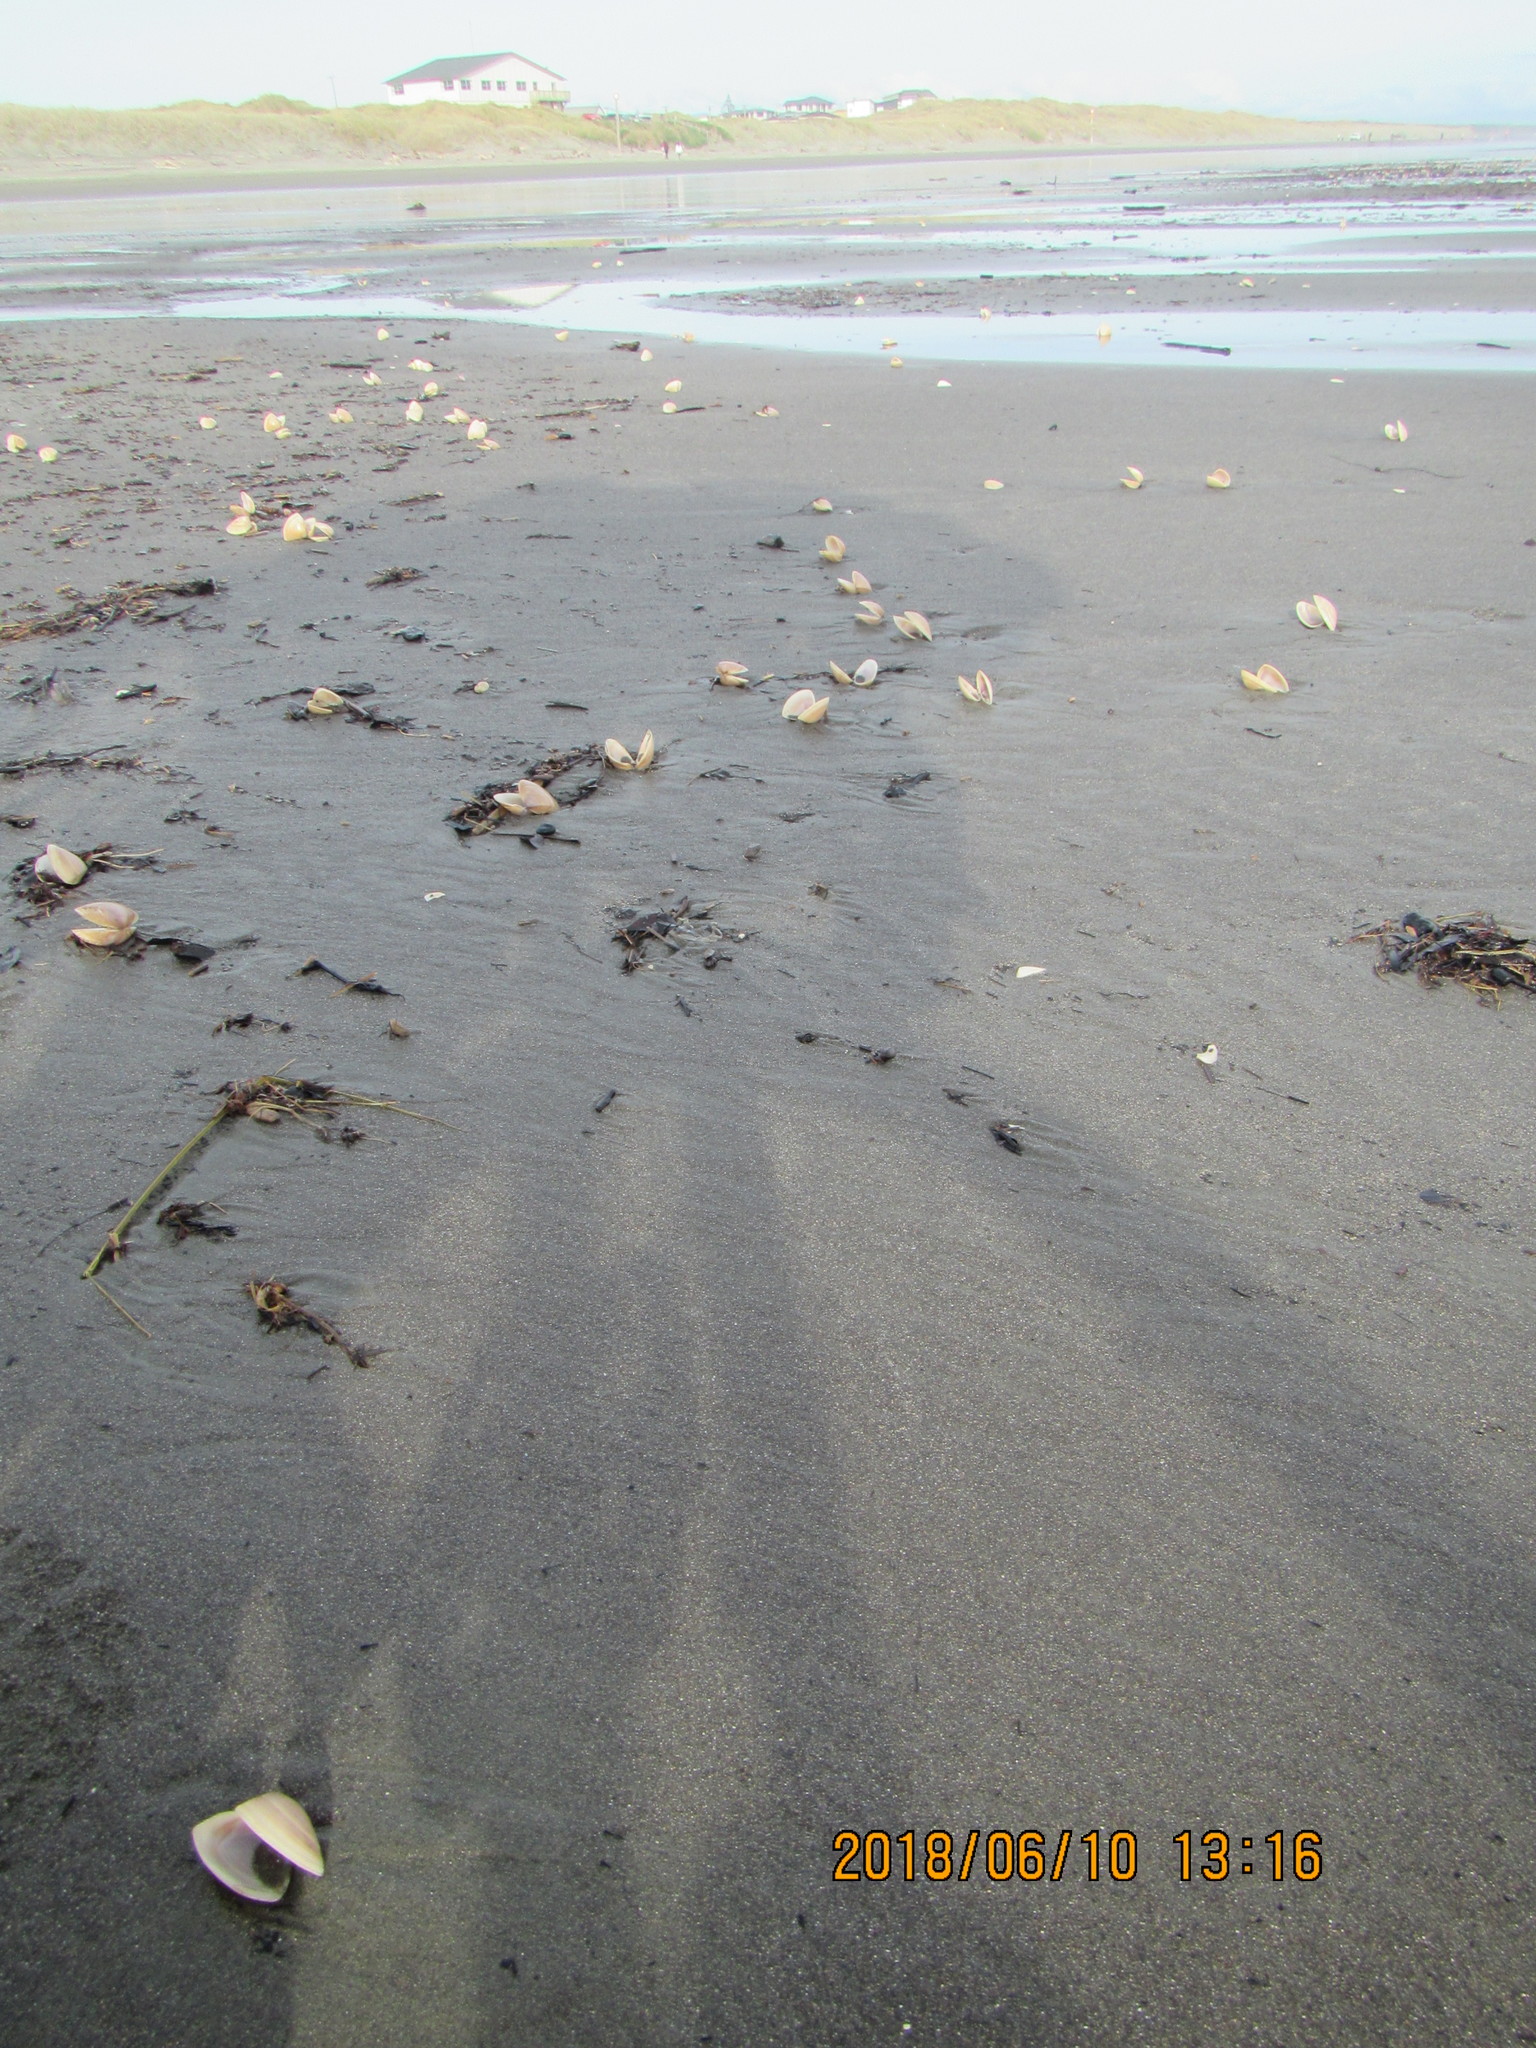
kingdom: Animalia
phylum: Mollusca
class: Bivalvia
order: Venerida
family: Mactridae
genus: Crassula
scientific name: Crassula aequilatera
